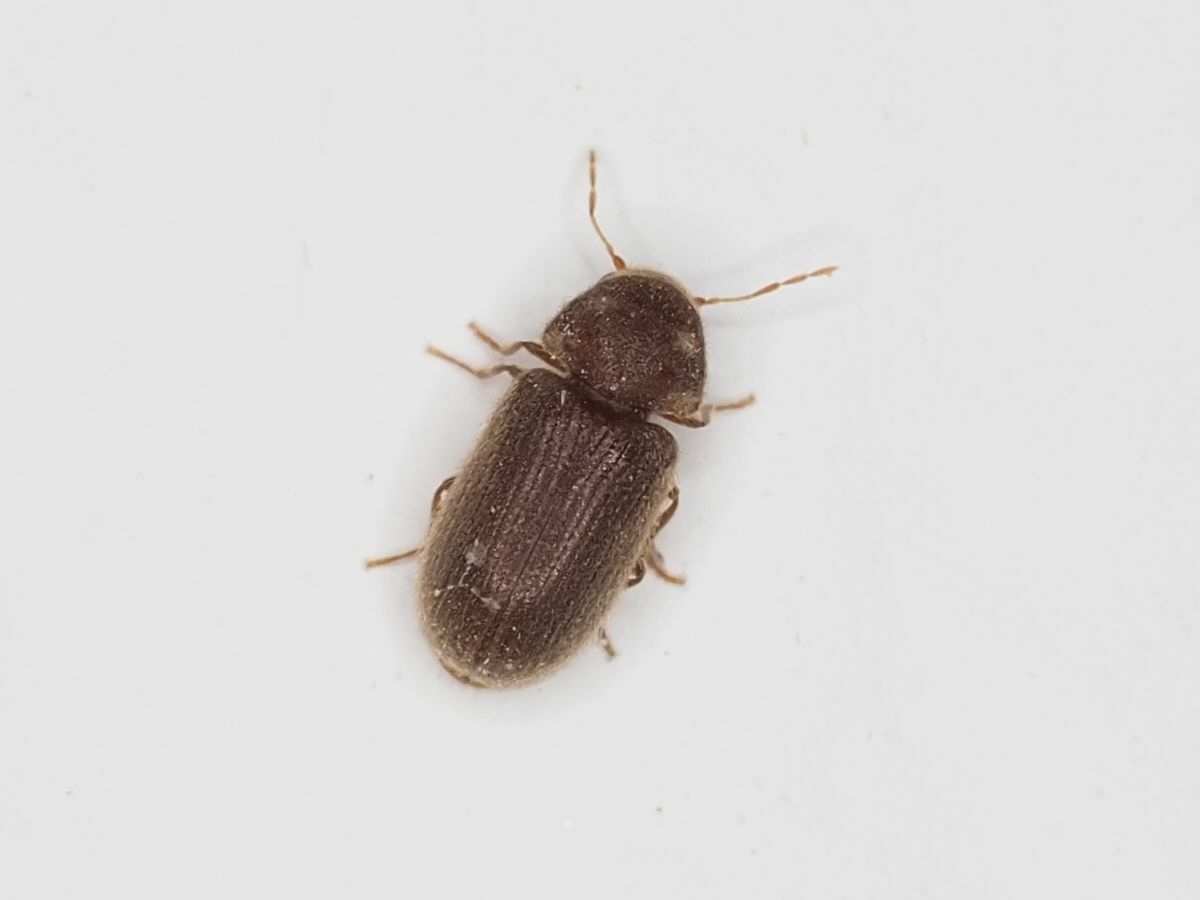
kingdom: Animalia
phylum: Arthropoda
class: Insecta
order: Coleoptera
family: Anobiidae
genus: Stegobium
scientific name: Stegobium paniceum
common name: Drugstore beetle
